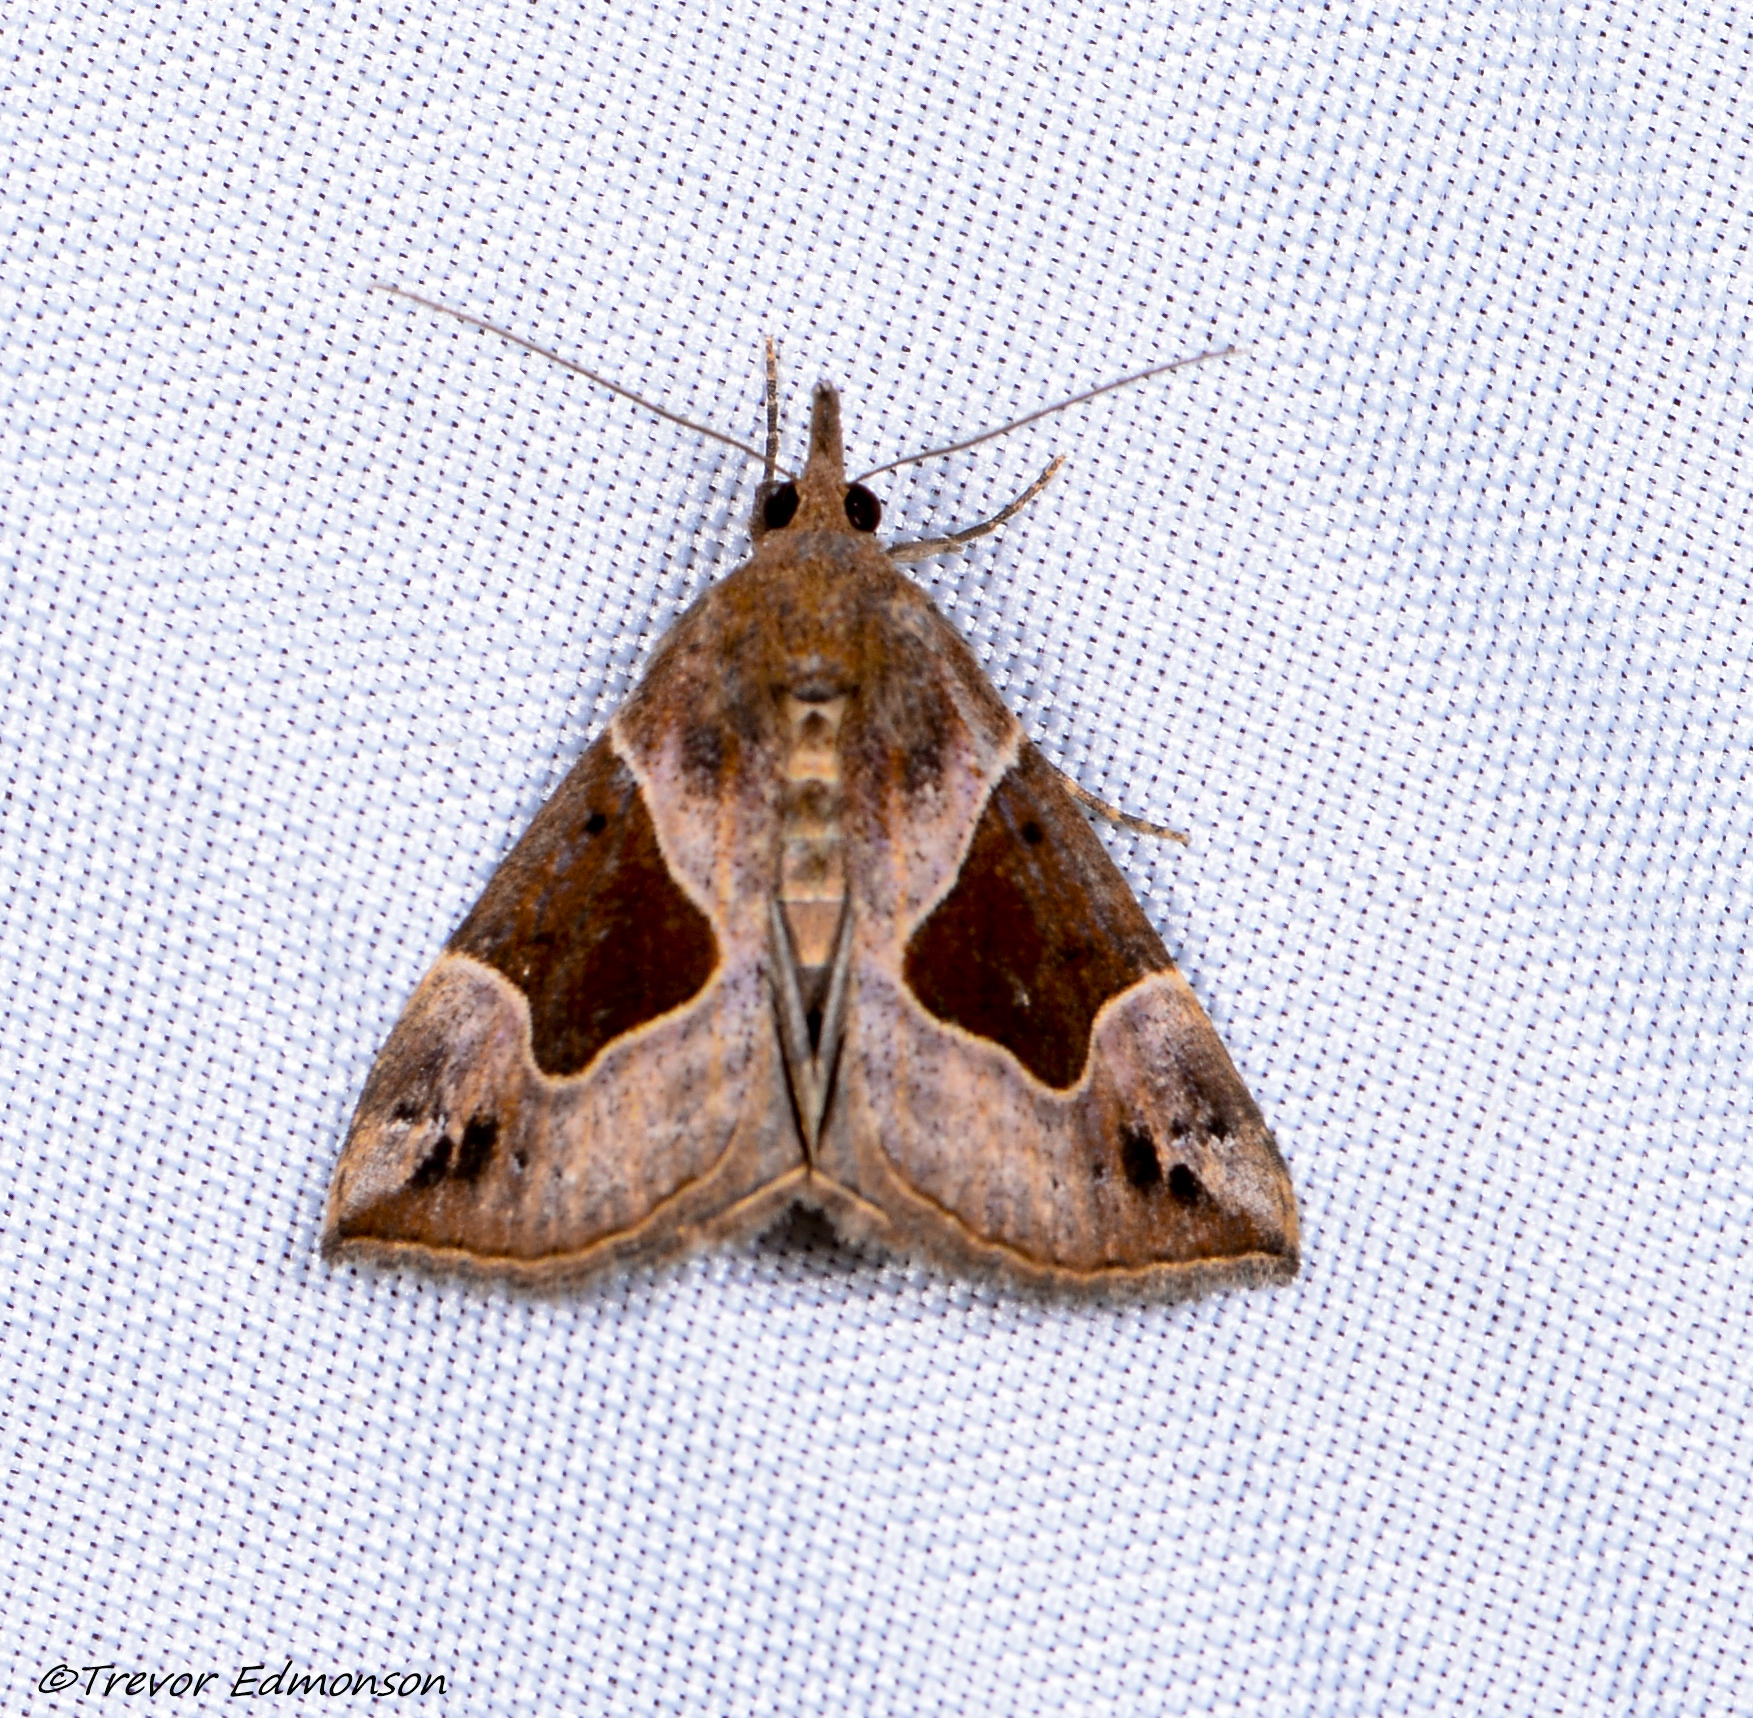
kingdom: Animalia
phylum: Arthropoda
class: Insecta
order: Lepidoptera
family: Erebidae
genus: Hypena
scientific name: Hypena manalis
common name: Flowing-line bomolocha moth
